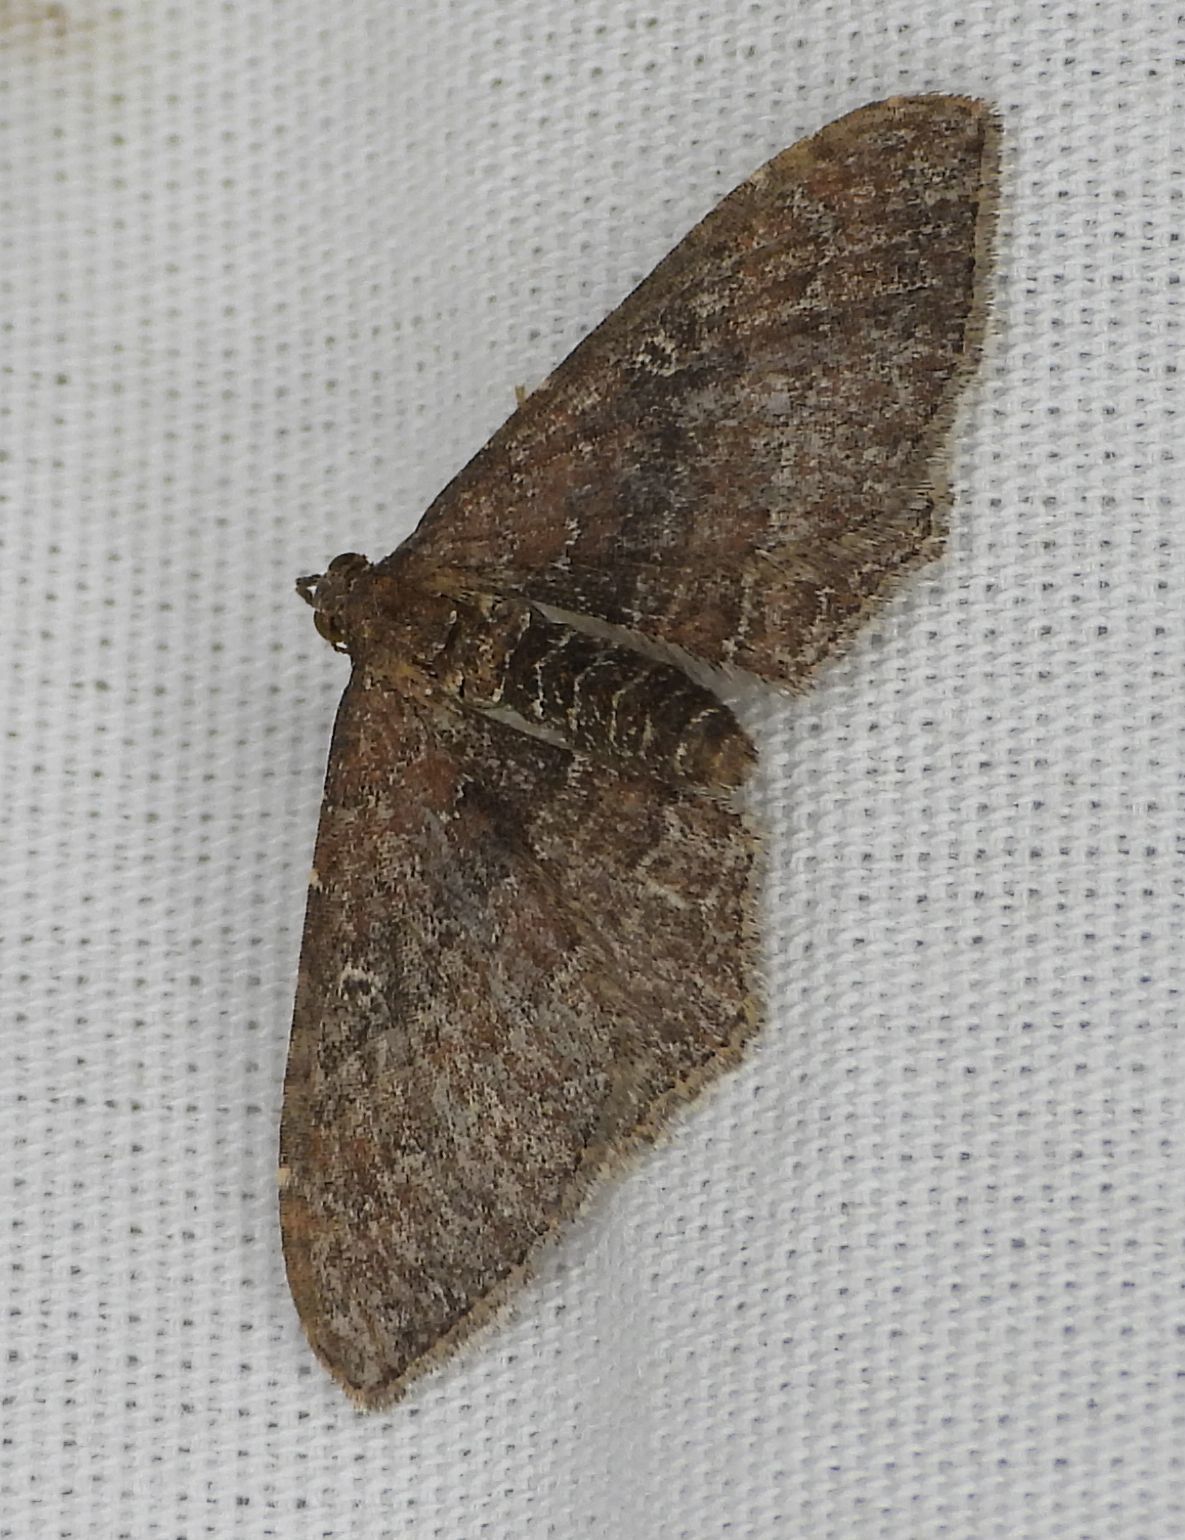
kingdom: Animalia
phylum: Arthropoda
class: Insecta
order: Lepidoptera
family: Geometridae
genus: Orthonama
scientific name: Orthonama obstipata
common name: The gem
